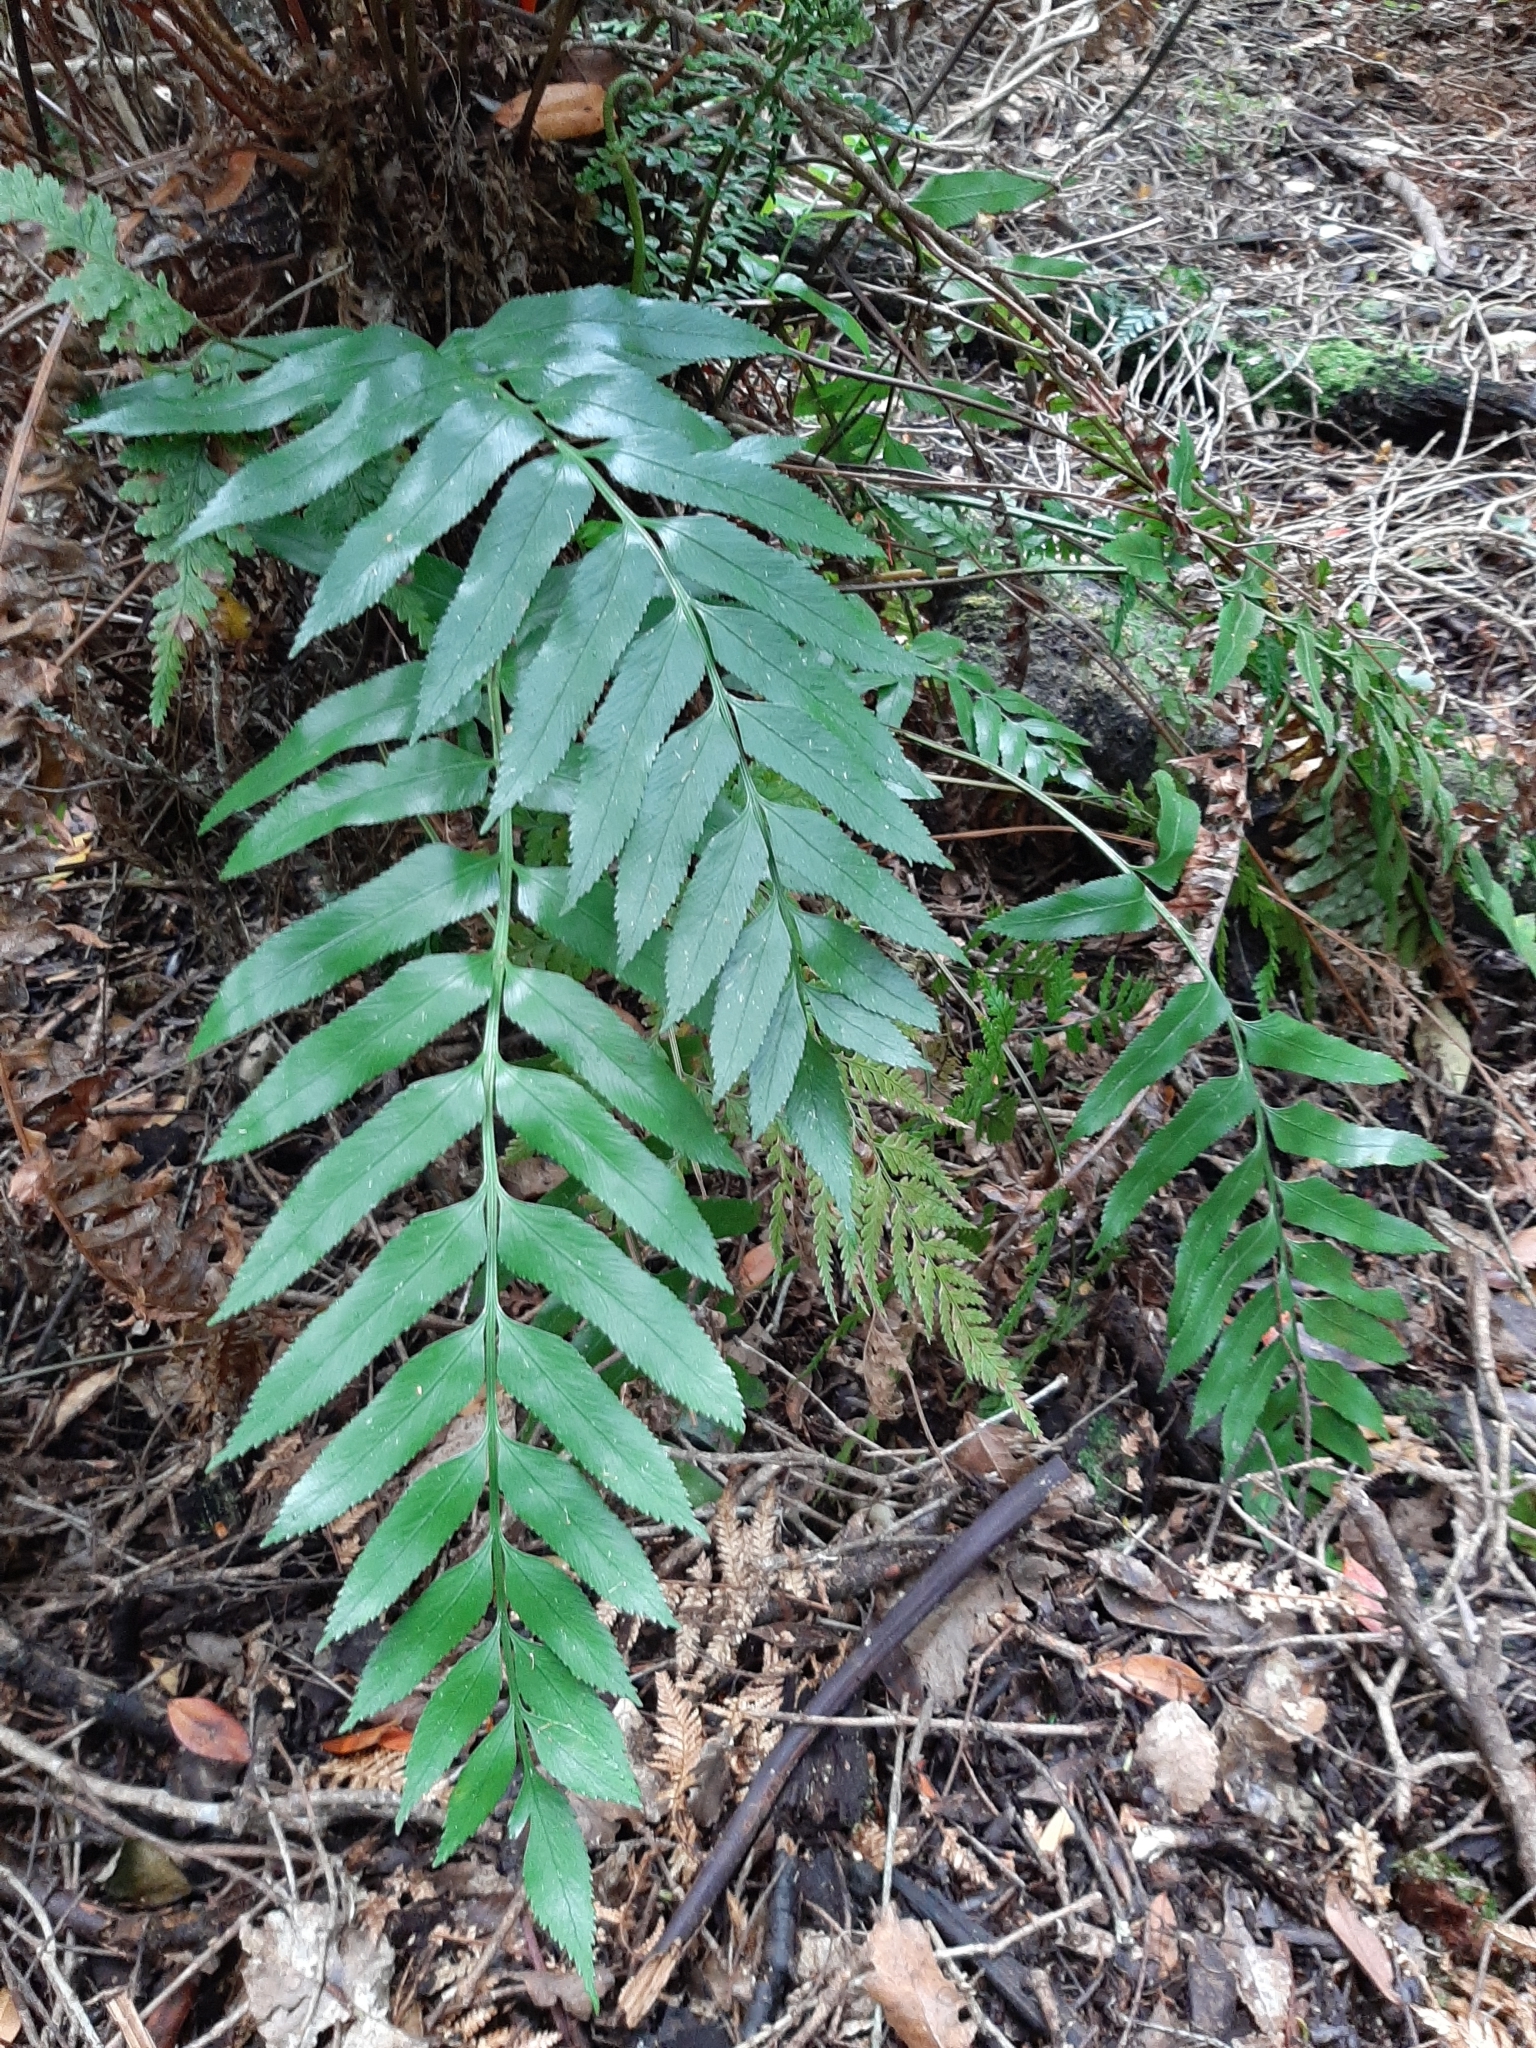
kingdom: Plantae
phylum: Tracheophyta
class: Polypodiopsida
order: Polypodiales
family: Aspleniaceae
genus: Asplenium
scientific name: Asplenium obtusatum
